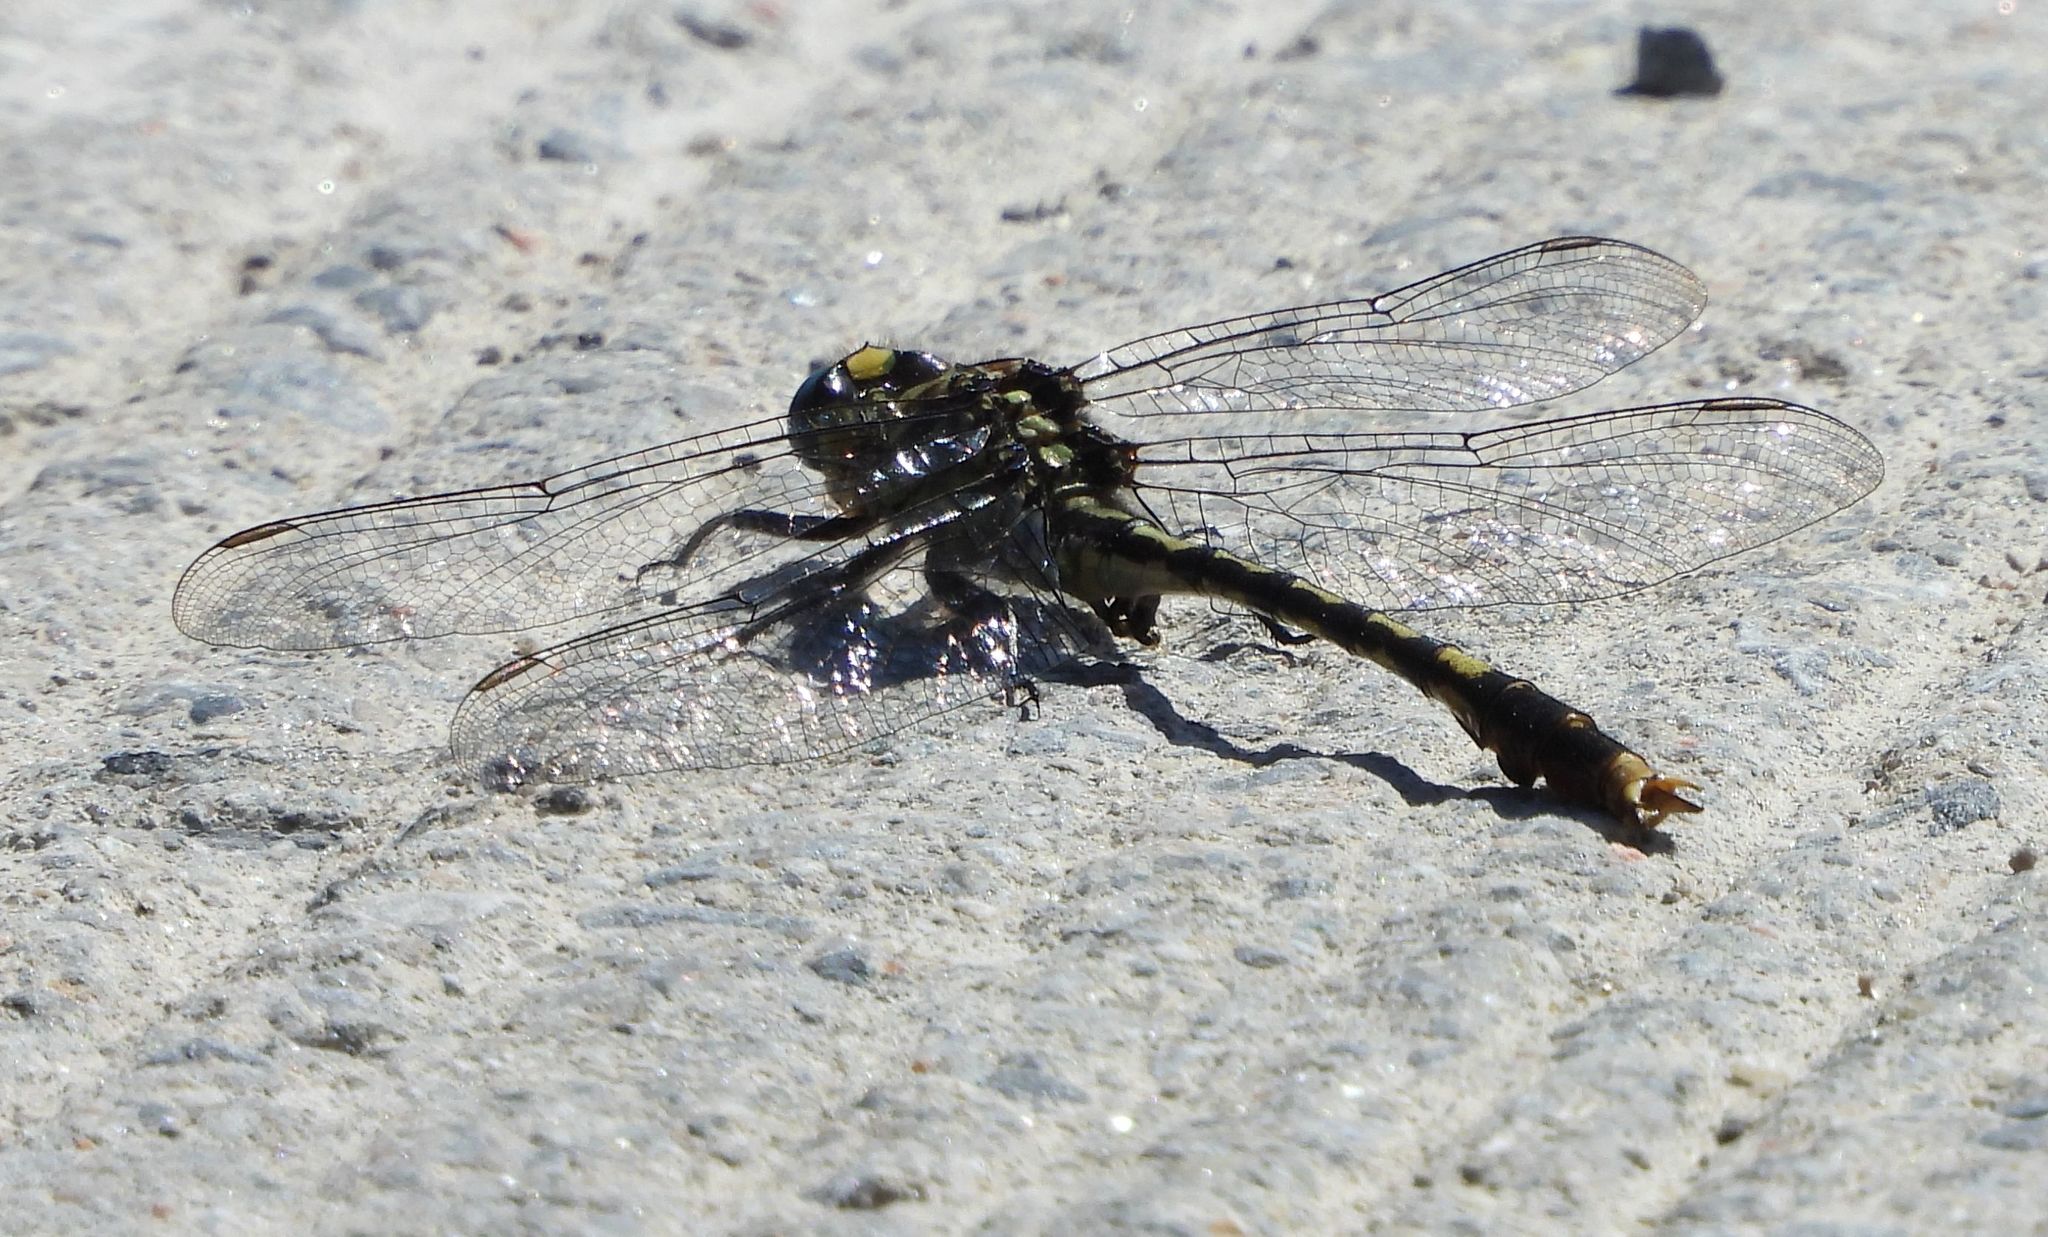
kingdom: Animalia
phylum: Arthropoda
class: Insecta
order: Odonata
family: Gomphidae
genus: Arigomphus
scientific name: Arigomphus villosipes
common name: Unicorn clubtail
